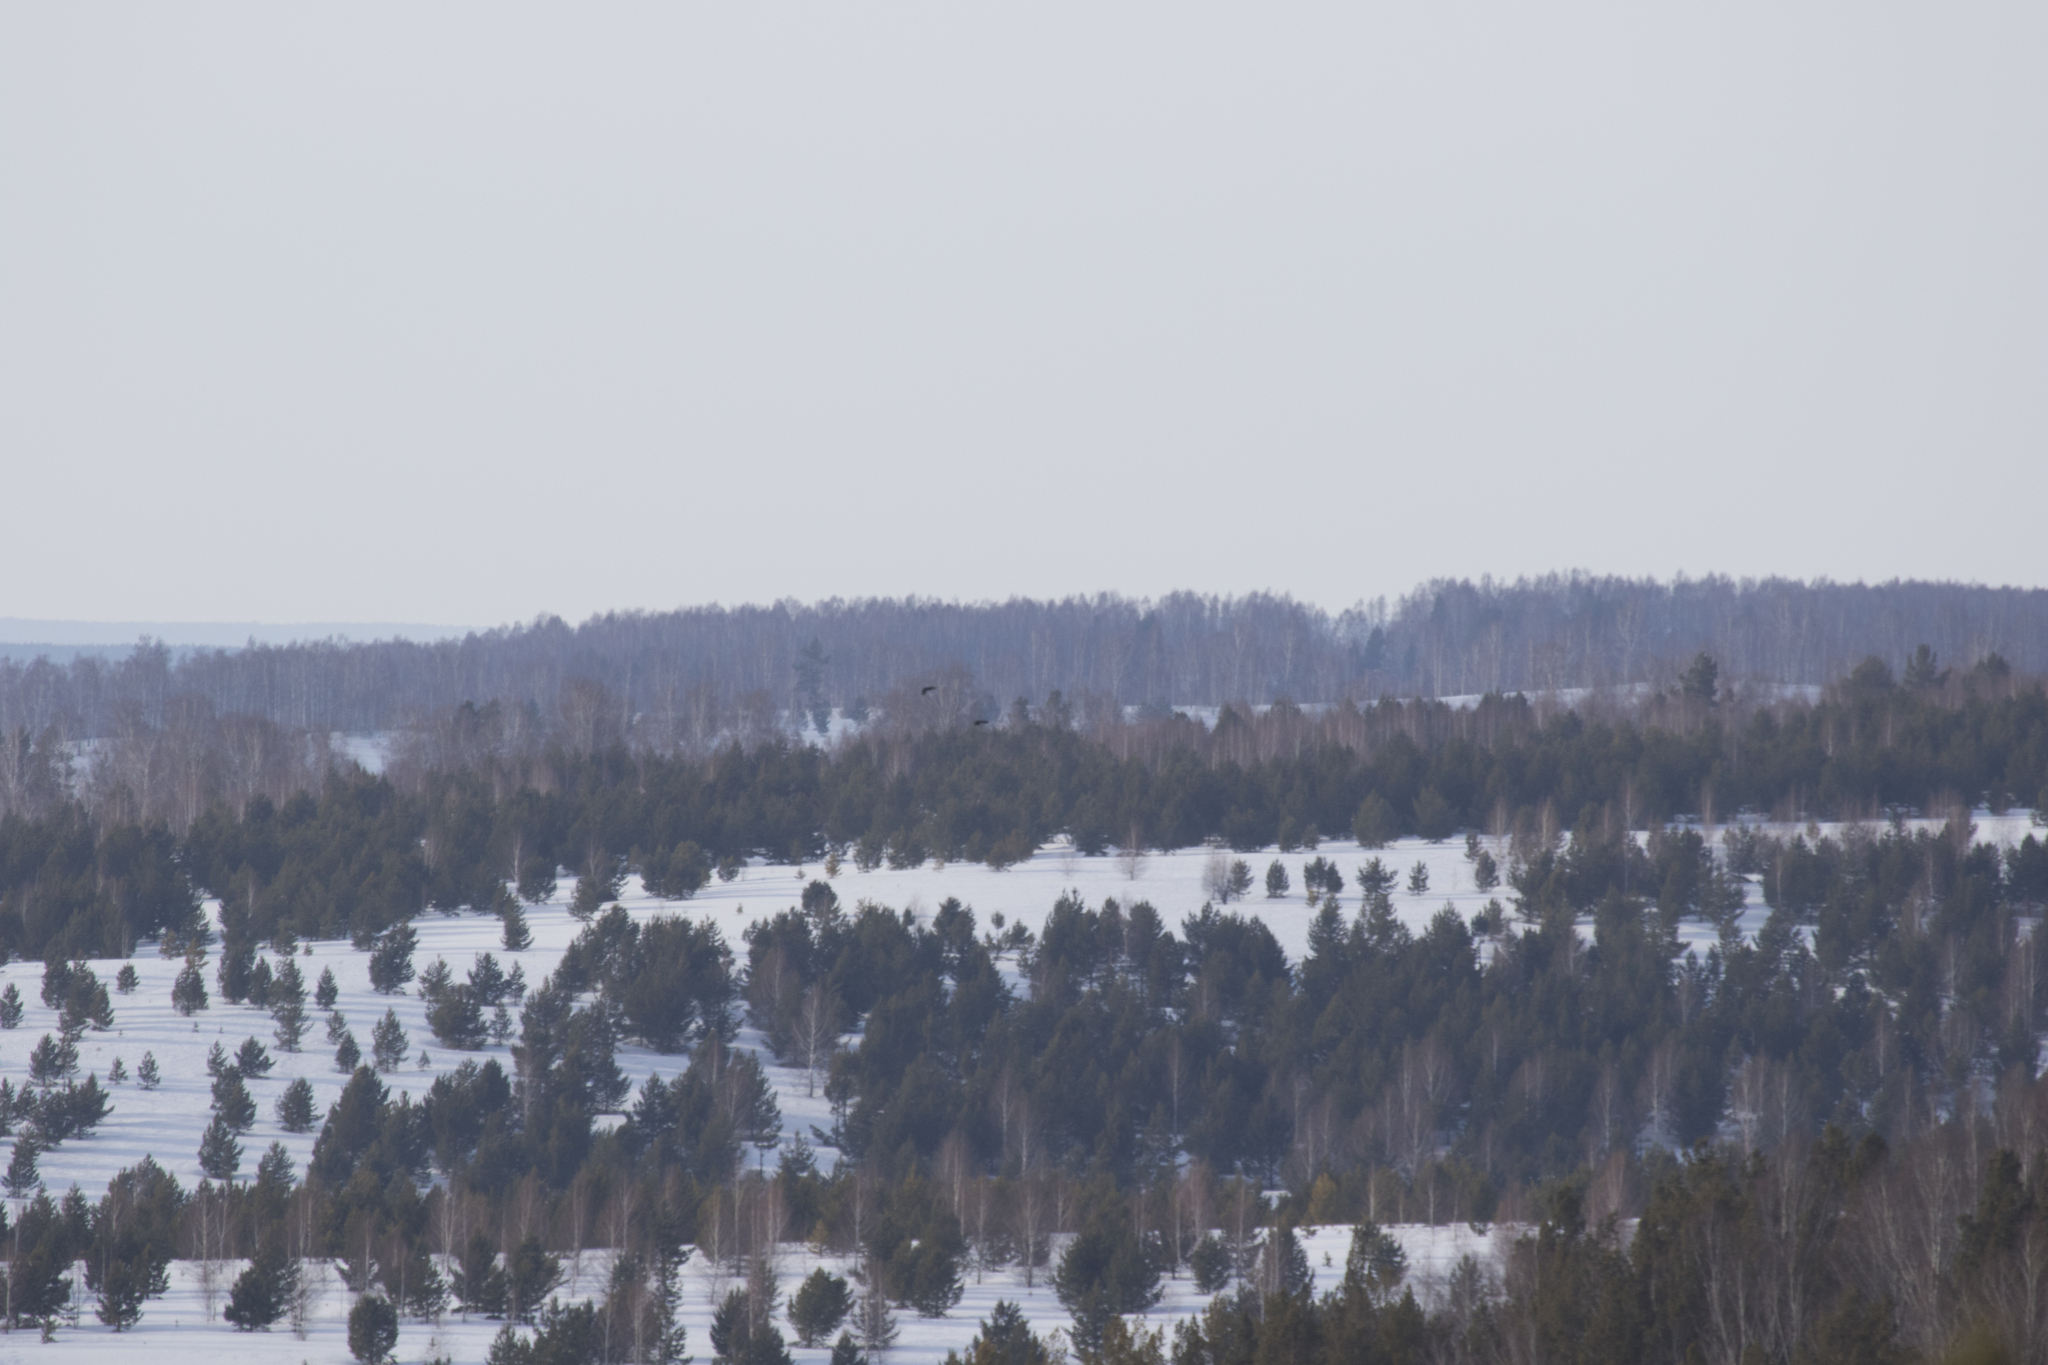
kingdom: Animalia
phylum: Chordata
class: Aves
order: Passeriformes
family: Corvidae
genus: Corvus
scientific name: Corvus corax
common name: Common raven
